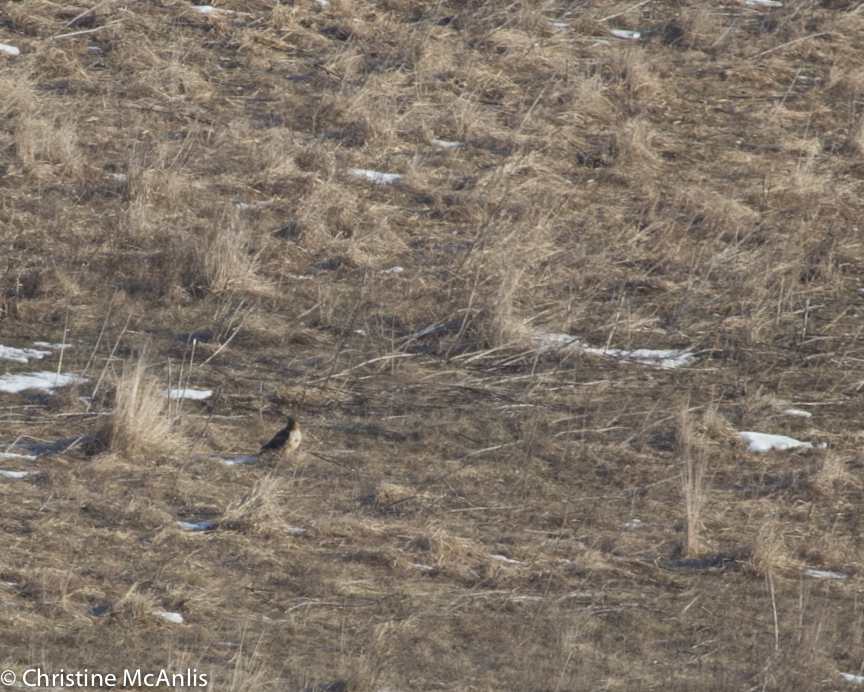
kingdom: Animalia
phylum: Chordata
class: Aves
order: Accipitriformes
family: Accipitridae
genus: Circus
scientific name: Circus cyaneus
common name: Hen harrier
